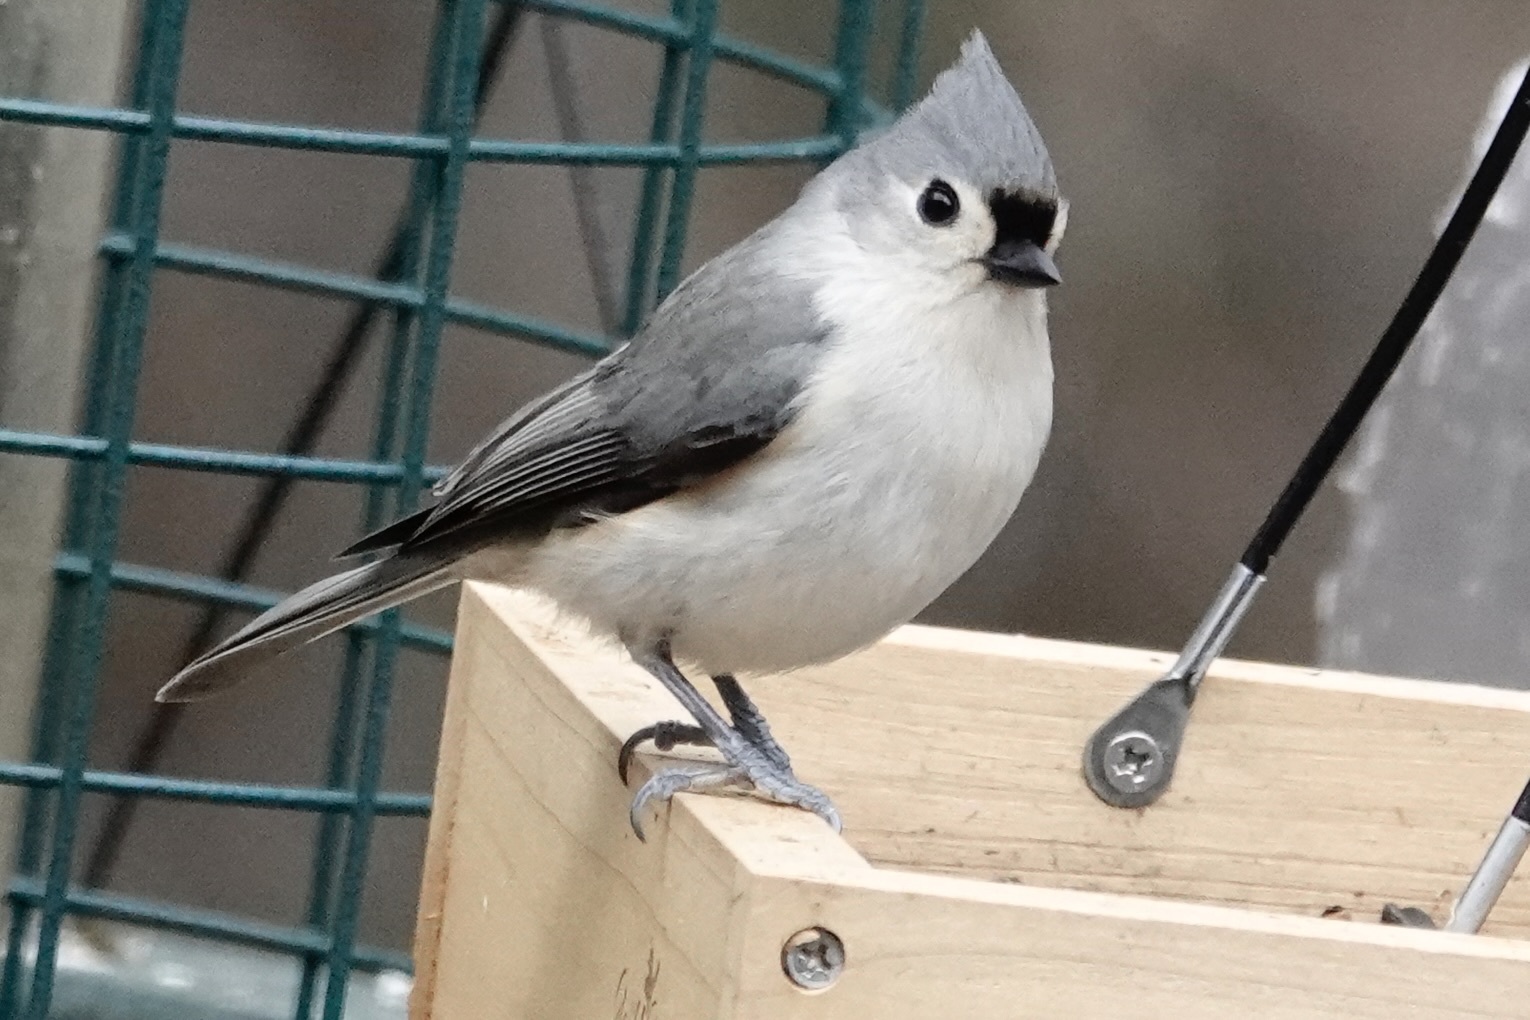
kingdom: Animalia
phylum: Chordata
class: Aves
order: Passeriformes
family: Paridae
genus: Baeolophus
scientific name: Baeolophus bicolor
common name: Tufted titmouse
